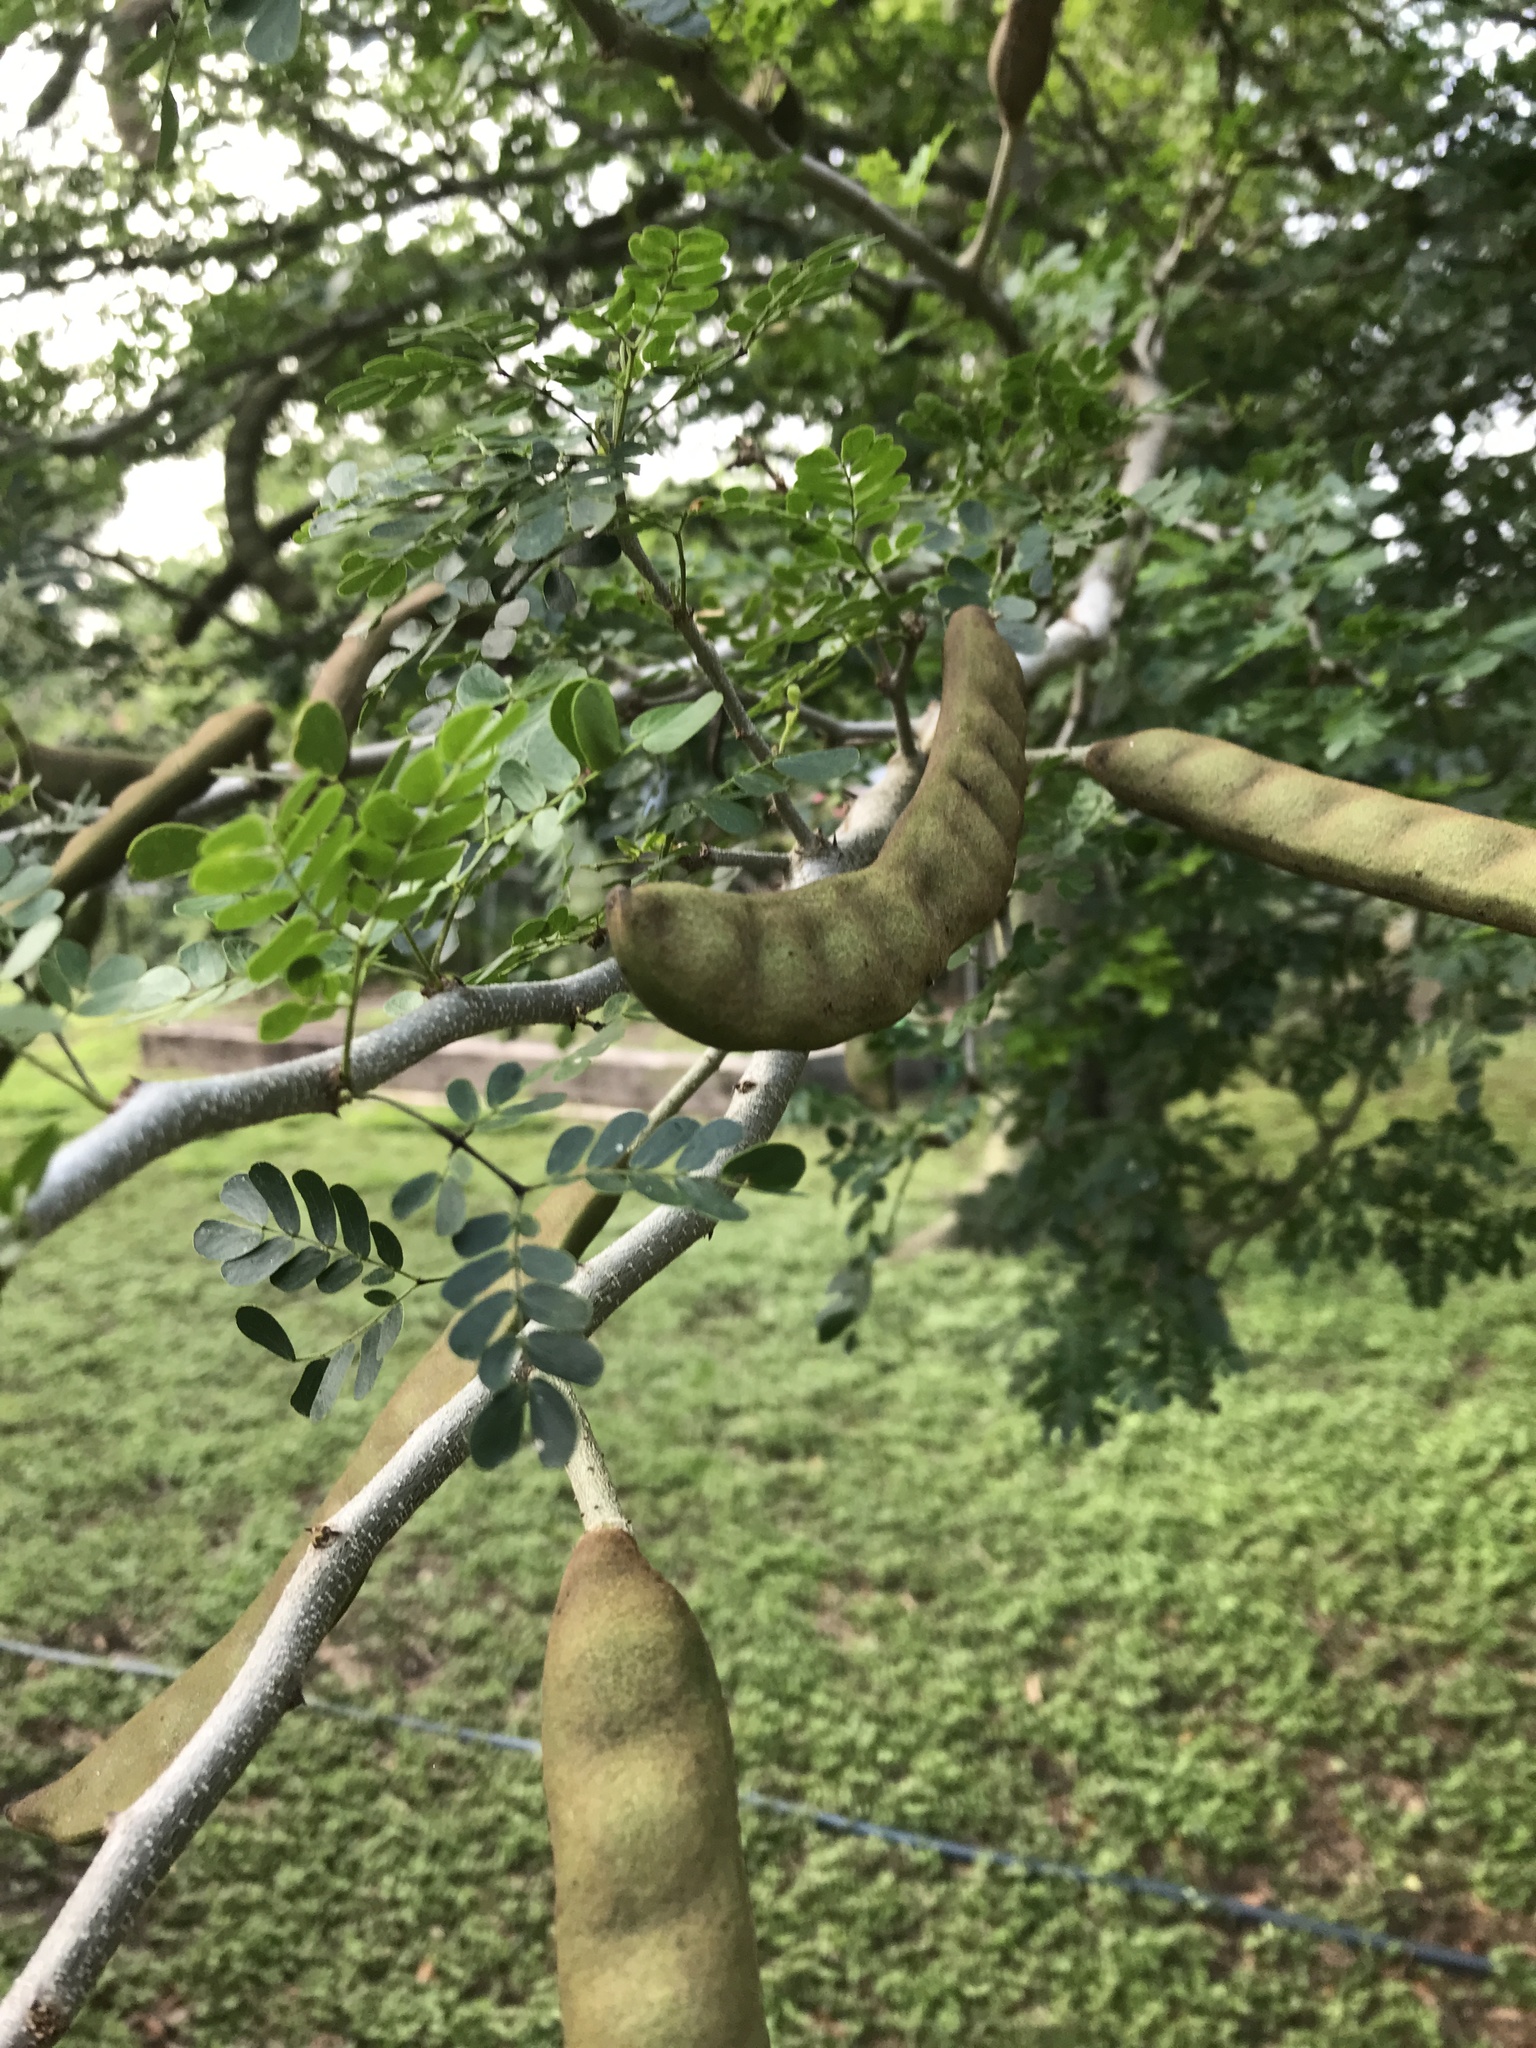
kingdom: Plantae
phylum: Tracheophyta
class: Magnoliopsida
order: Fabales
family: Fabaceae
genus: Ebenopsis
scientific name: Ebenopsis ebano
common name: Ebony blackbead
